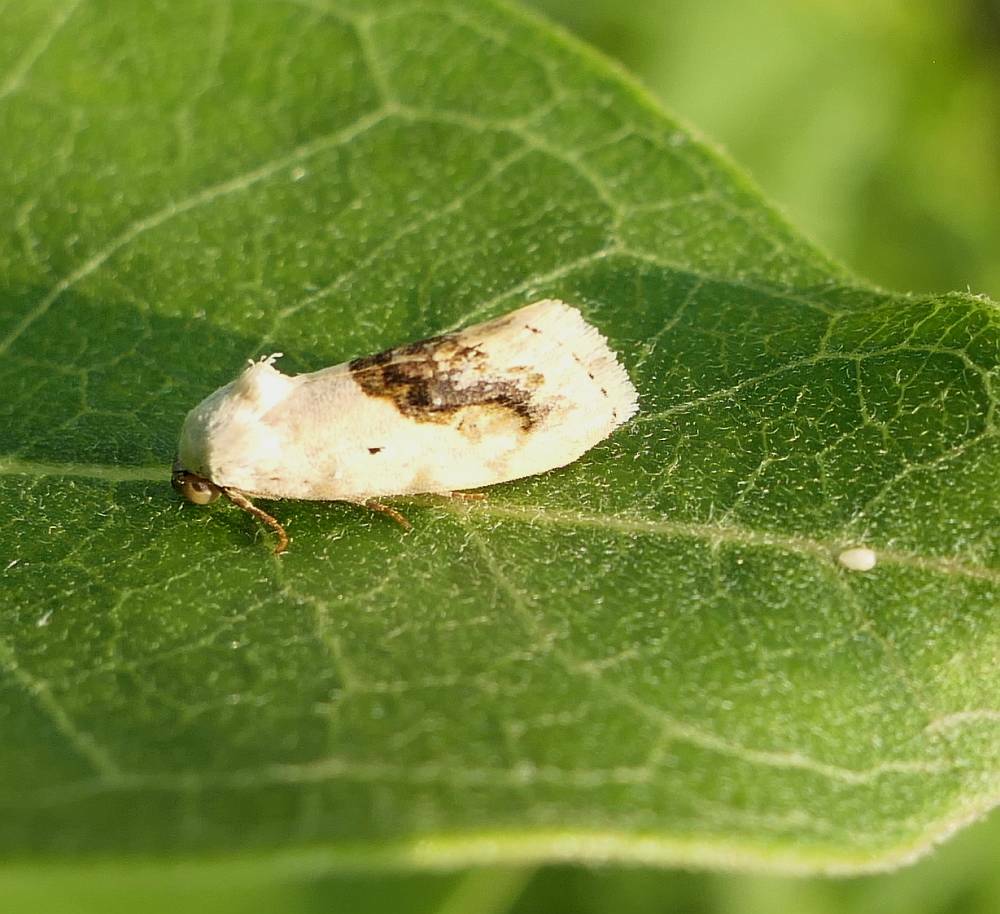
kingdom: Animalia
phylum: Arthropoda
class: Insecta
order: Lepidoptera
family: Noctuidae
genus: Acontia
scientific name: Acontia erastrioides
